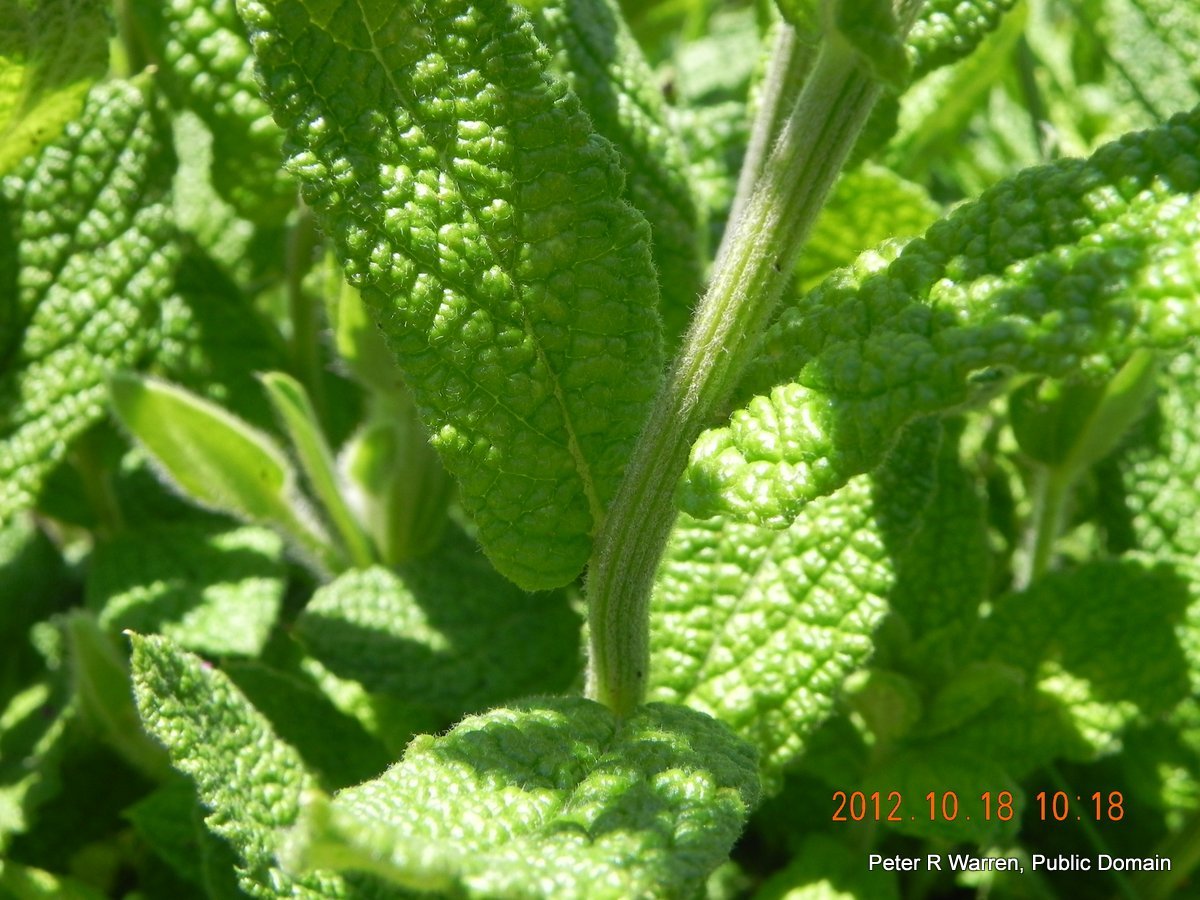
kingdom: Plantae
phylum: Tracheophyta
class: Magnoliopsida
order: Asterales
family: Asteraceae
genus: Hilliardiella
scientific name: Hilliardiella hirsuta
